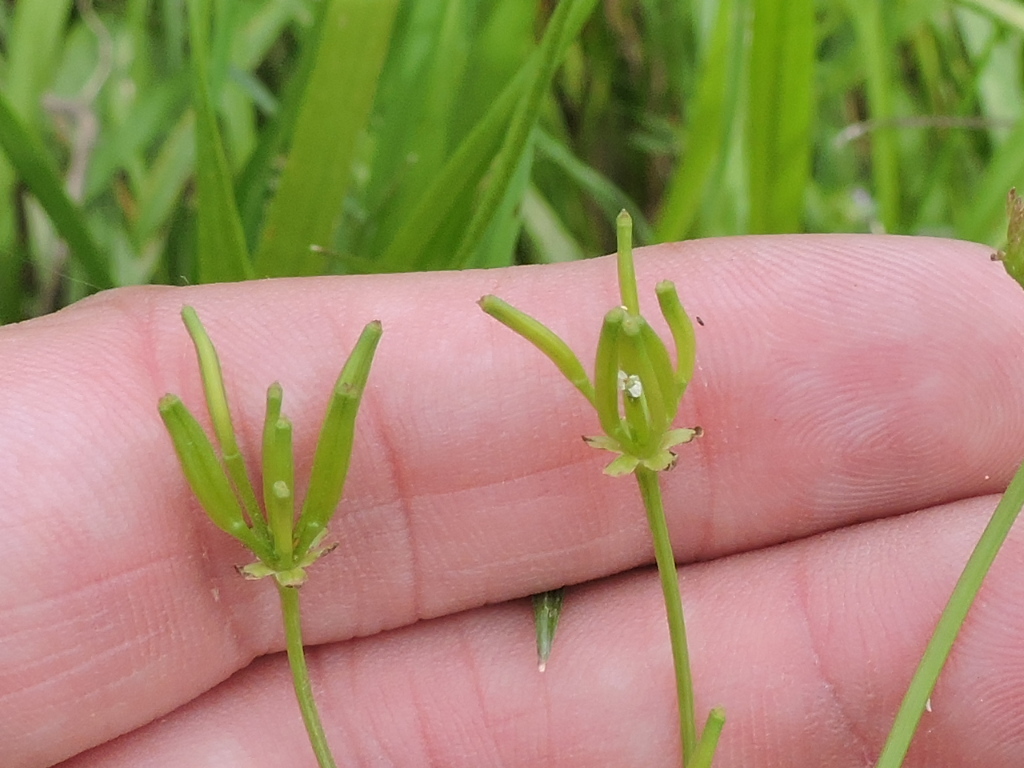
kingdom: Plantae
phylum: Tracheophyta
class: Magnoliopsida
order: Apiales
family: Apiaceae
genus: Chaerophyllum
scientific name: Chaerophyllum tainturieri
